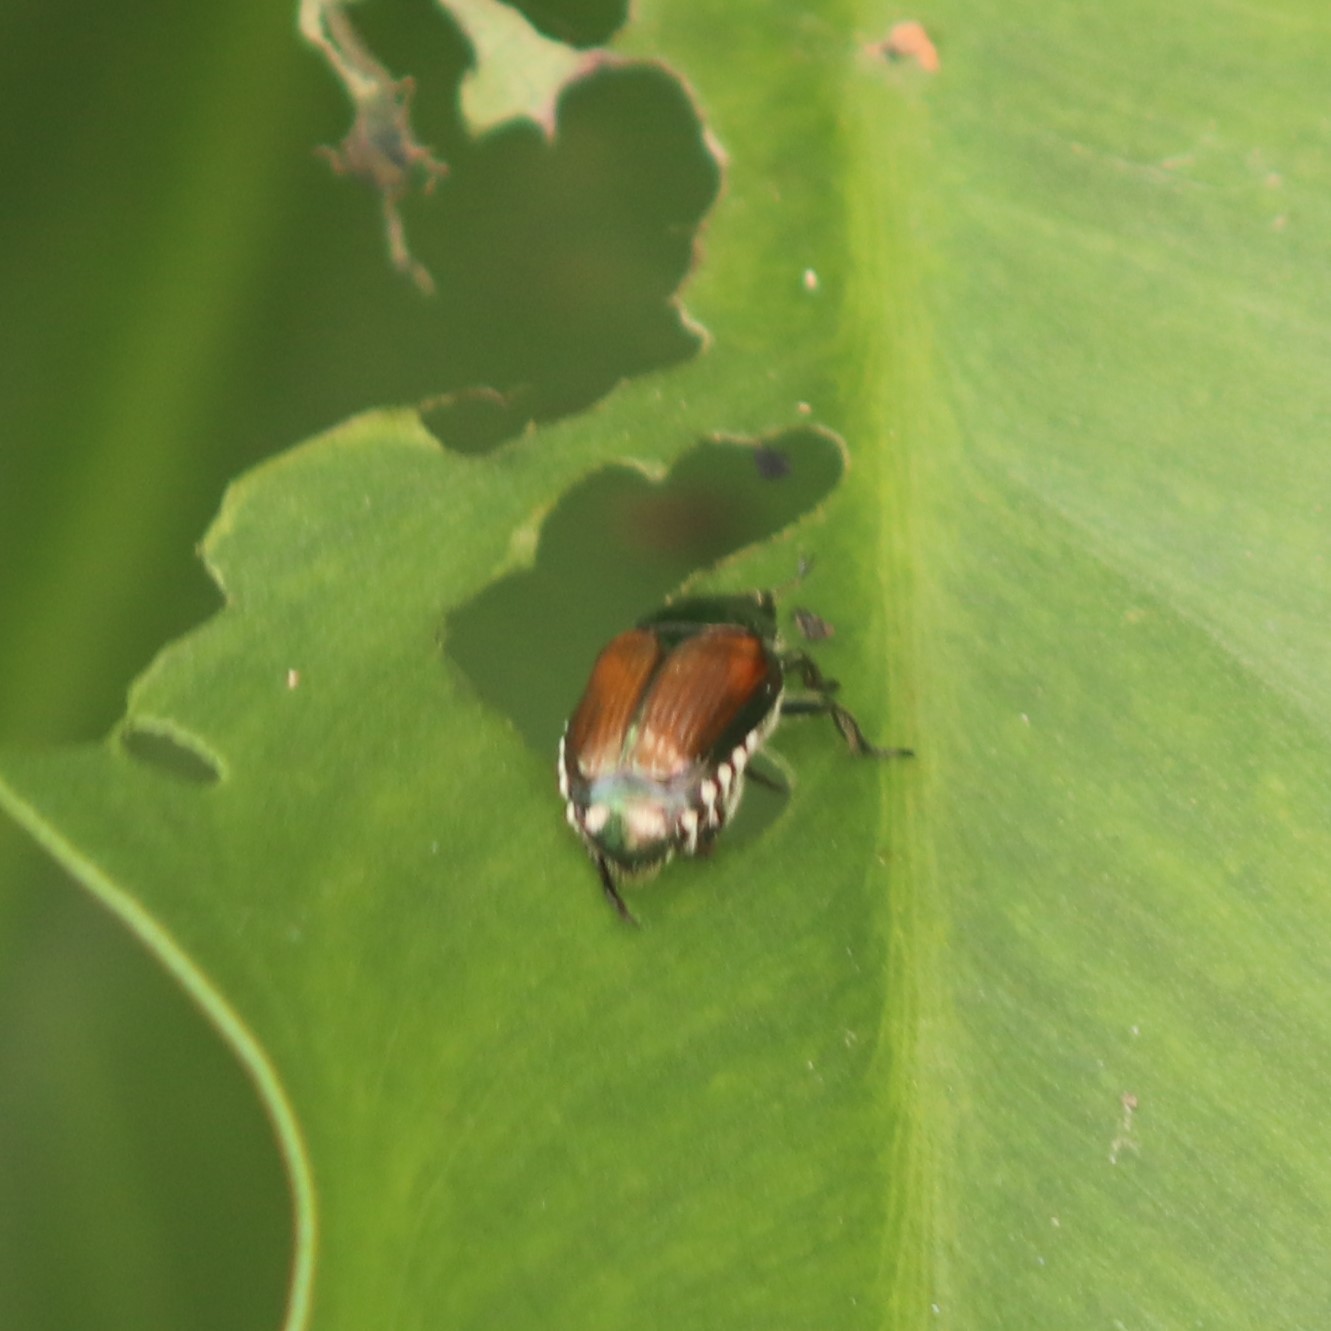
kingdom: Animalia
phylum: Arthropoda
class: Insecta
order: Coleoptera
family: Scarabaeidae
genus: Popillia
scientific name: Popillia japonica
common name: Japanese beetle
